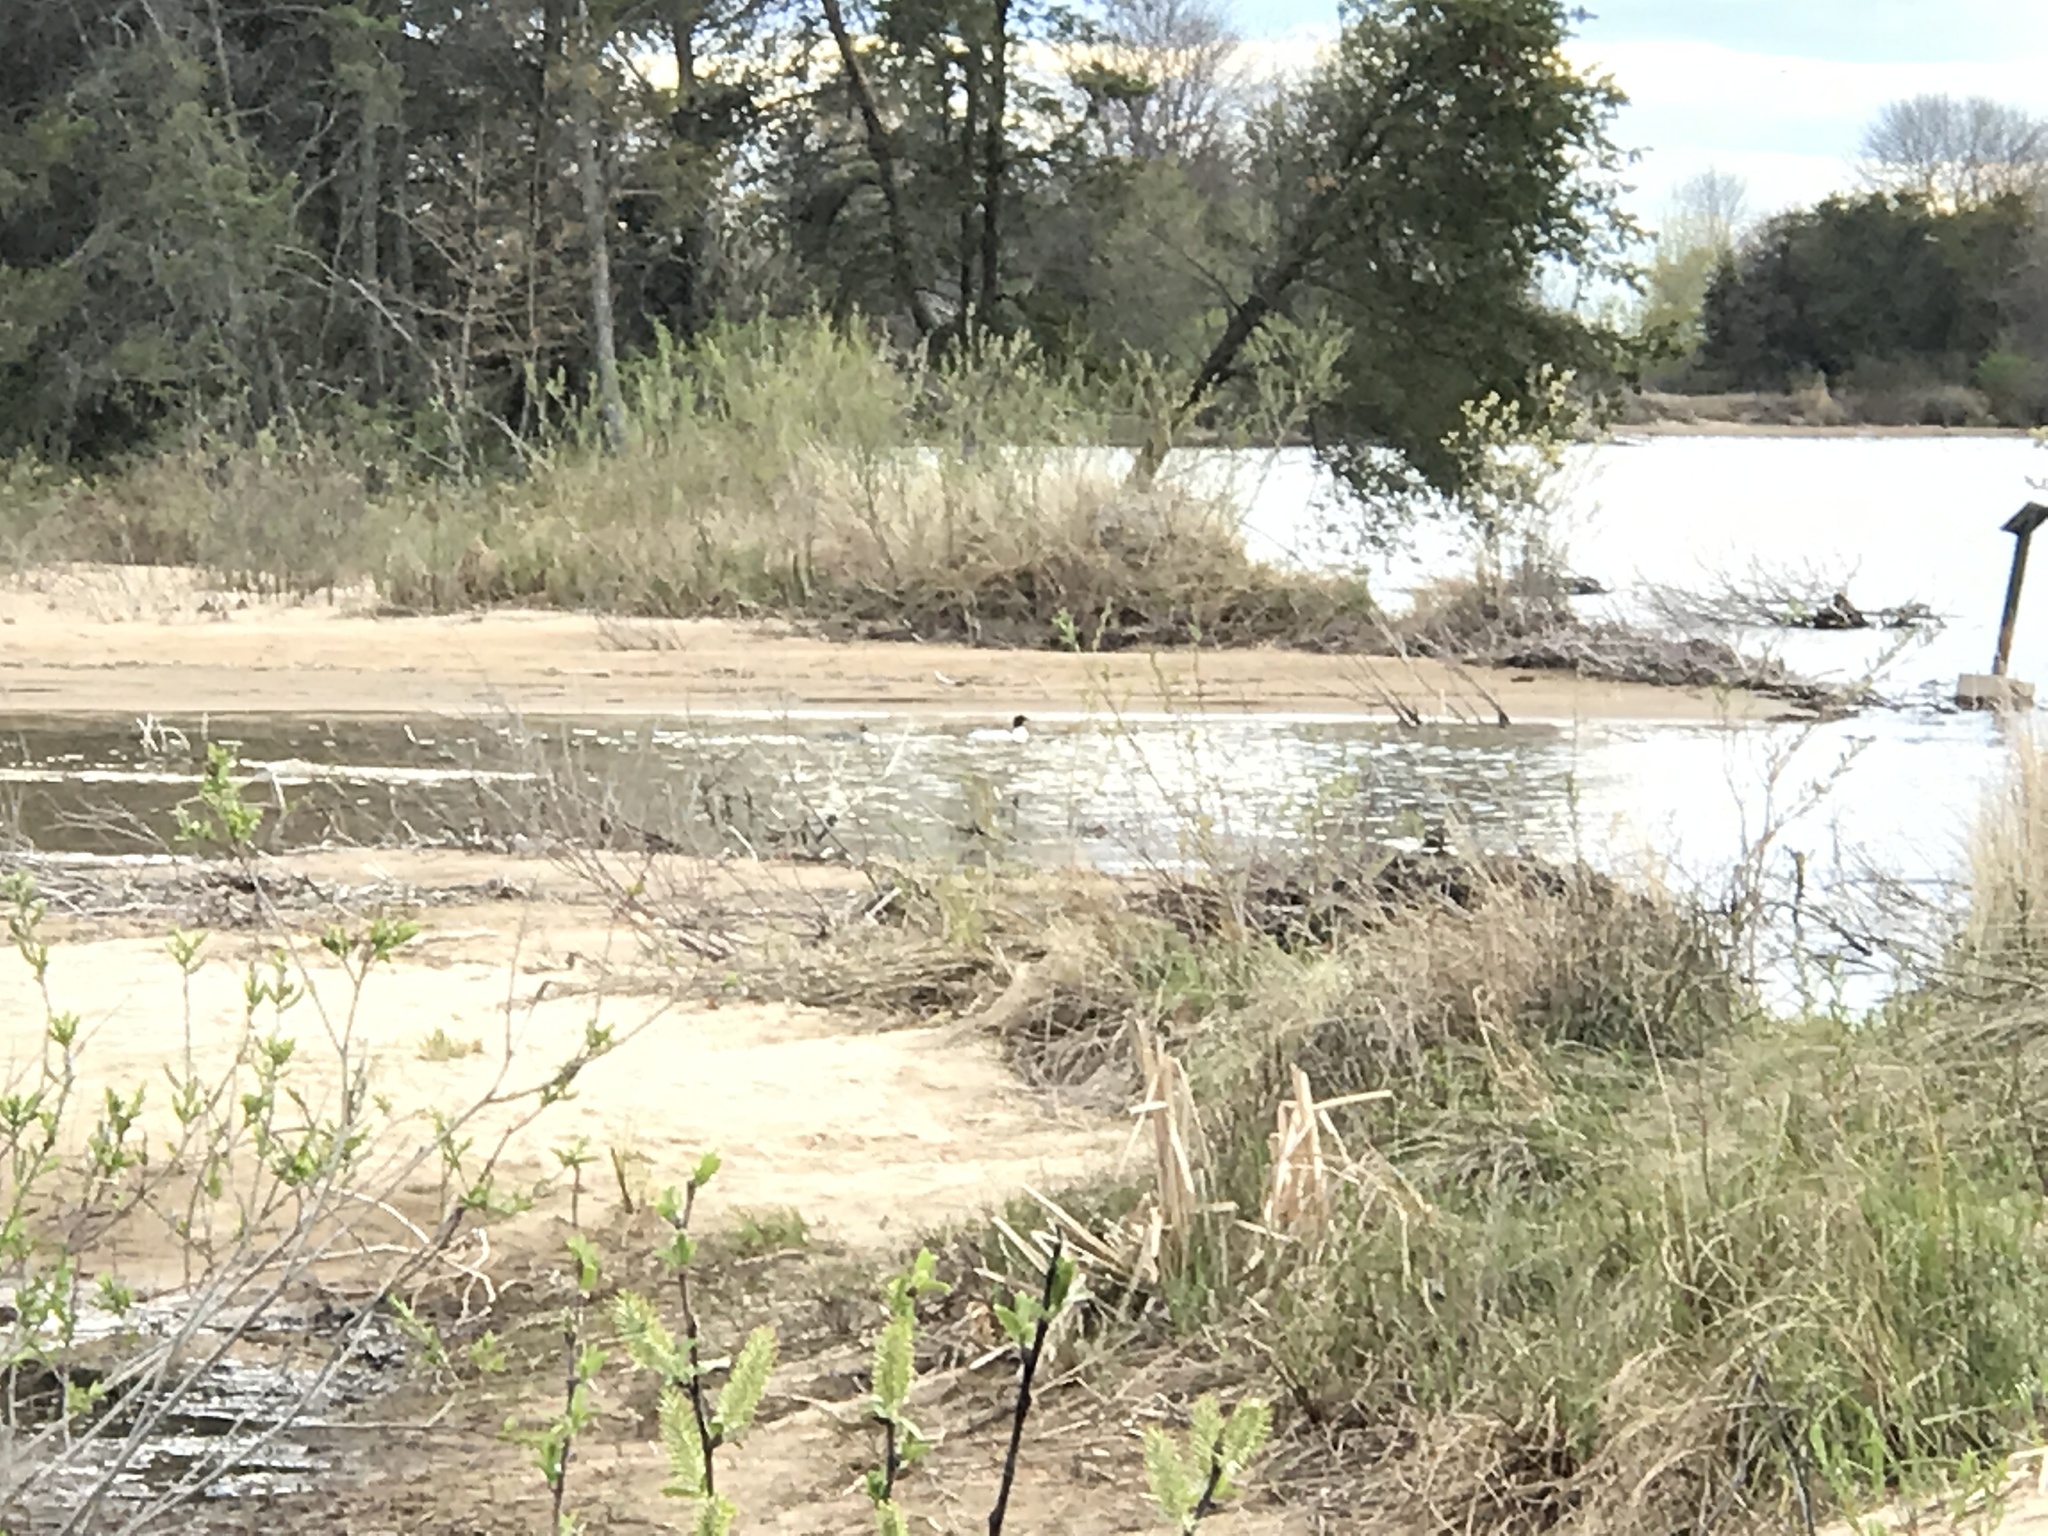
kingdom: Animalia
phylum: Chordata
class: Aves
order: Anseriformes
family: Anatidae
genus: Mergus
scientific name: Mergus merganser
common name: Common merganser
